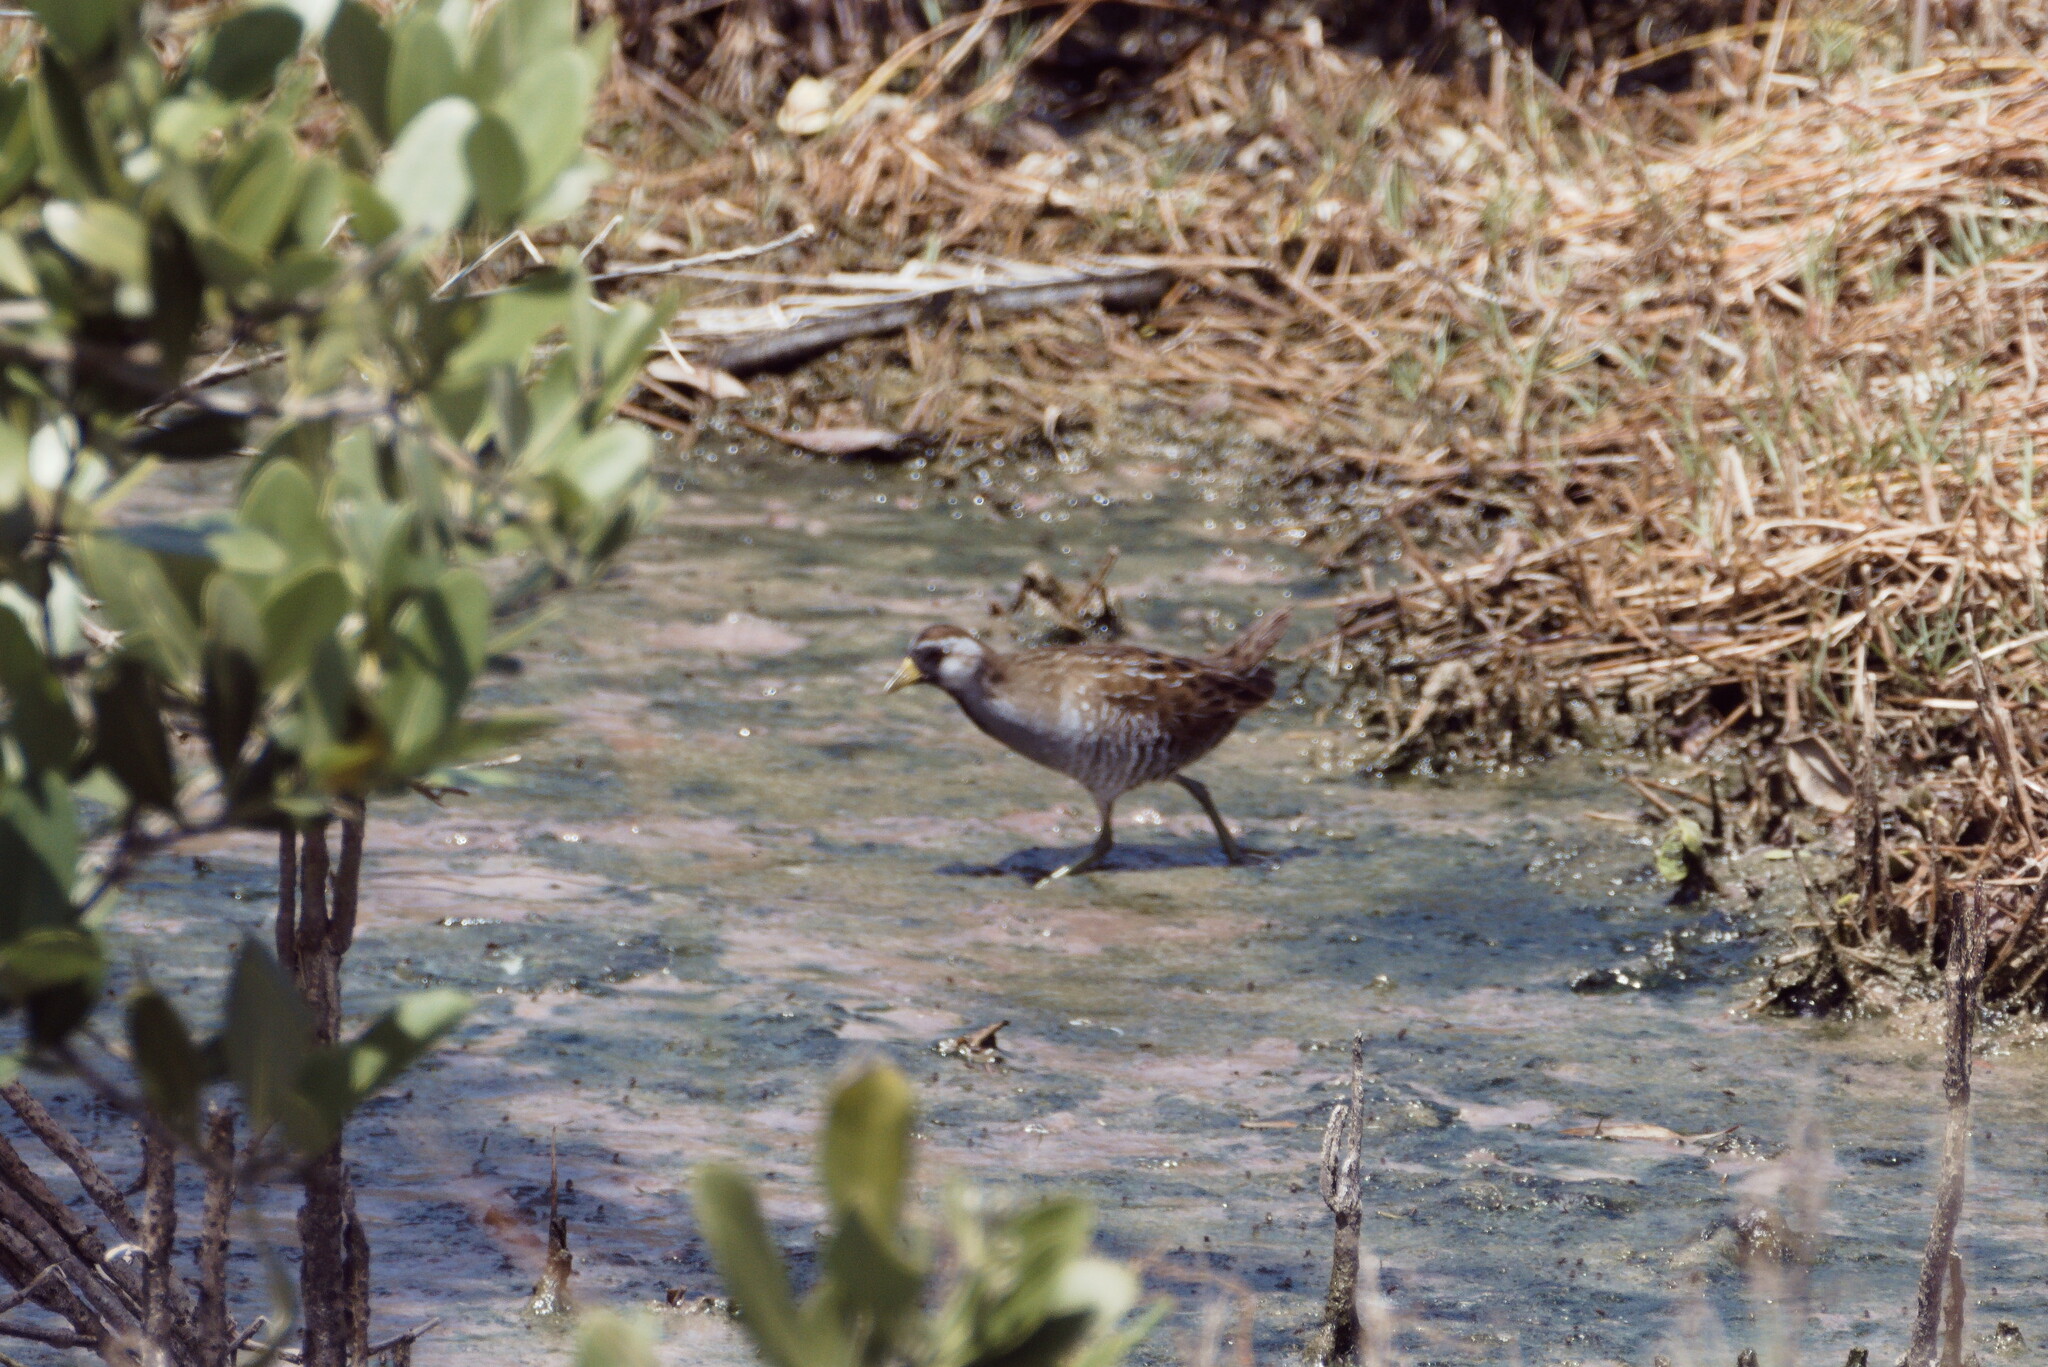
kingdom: Animalia
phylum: Chordata
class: Aves
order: Gruiformes
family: Rallidae
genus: Porzana
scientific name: Porzana carolina
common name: Sora
